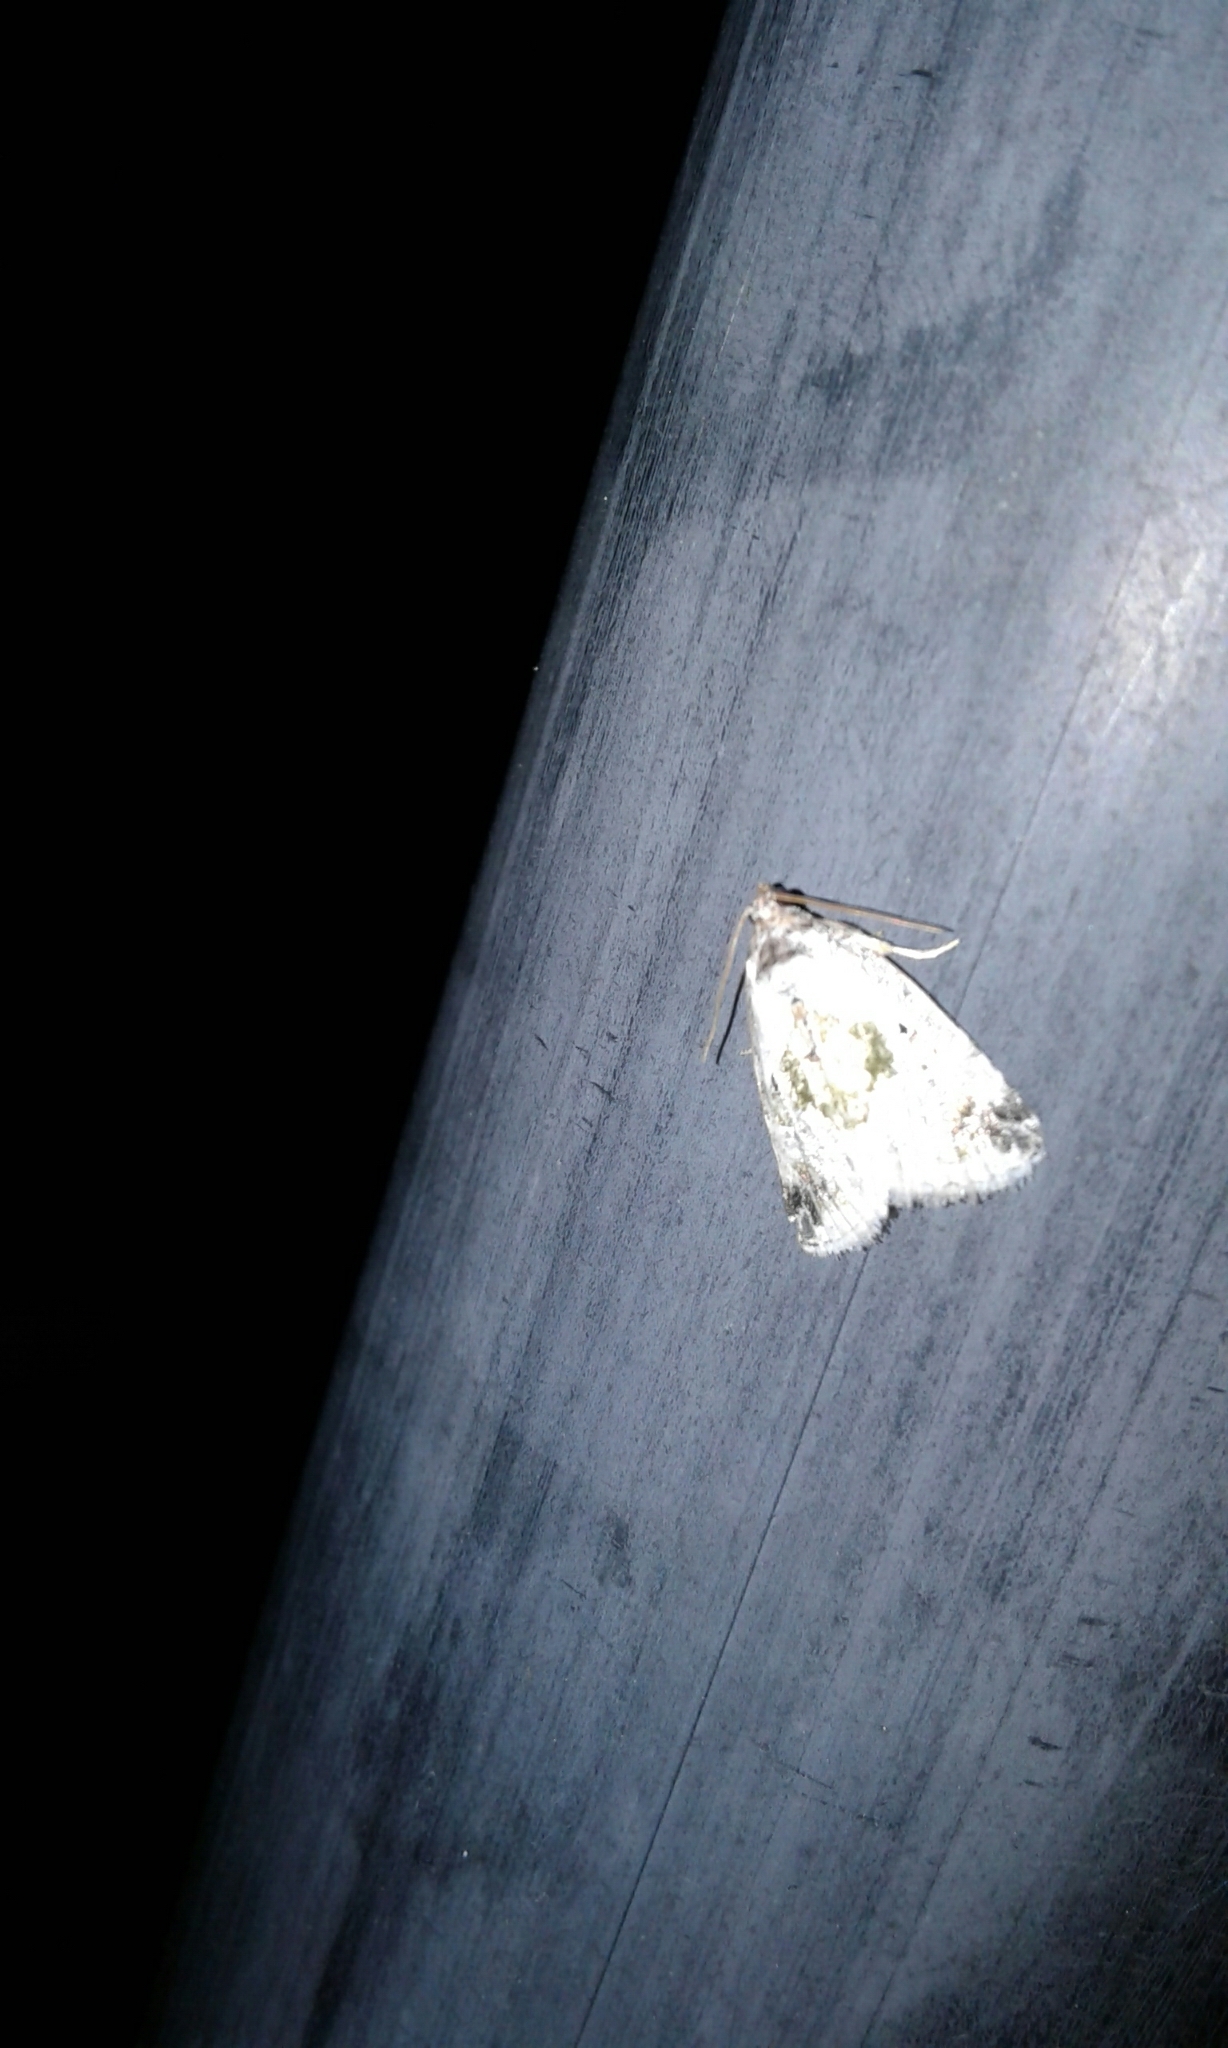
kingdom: Animalia
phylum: Arthropoda
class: Insecta
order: Lepidoptera
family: Noctuidae
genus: Maliattha
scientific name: Maliattha synochitis
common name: Black-dotted glyph
